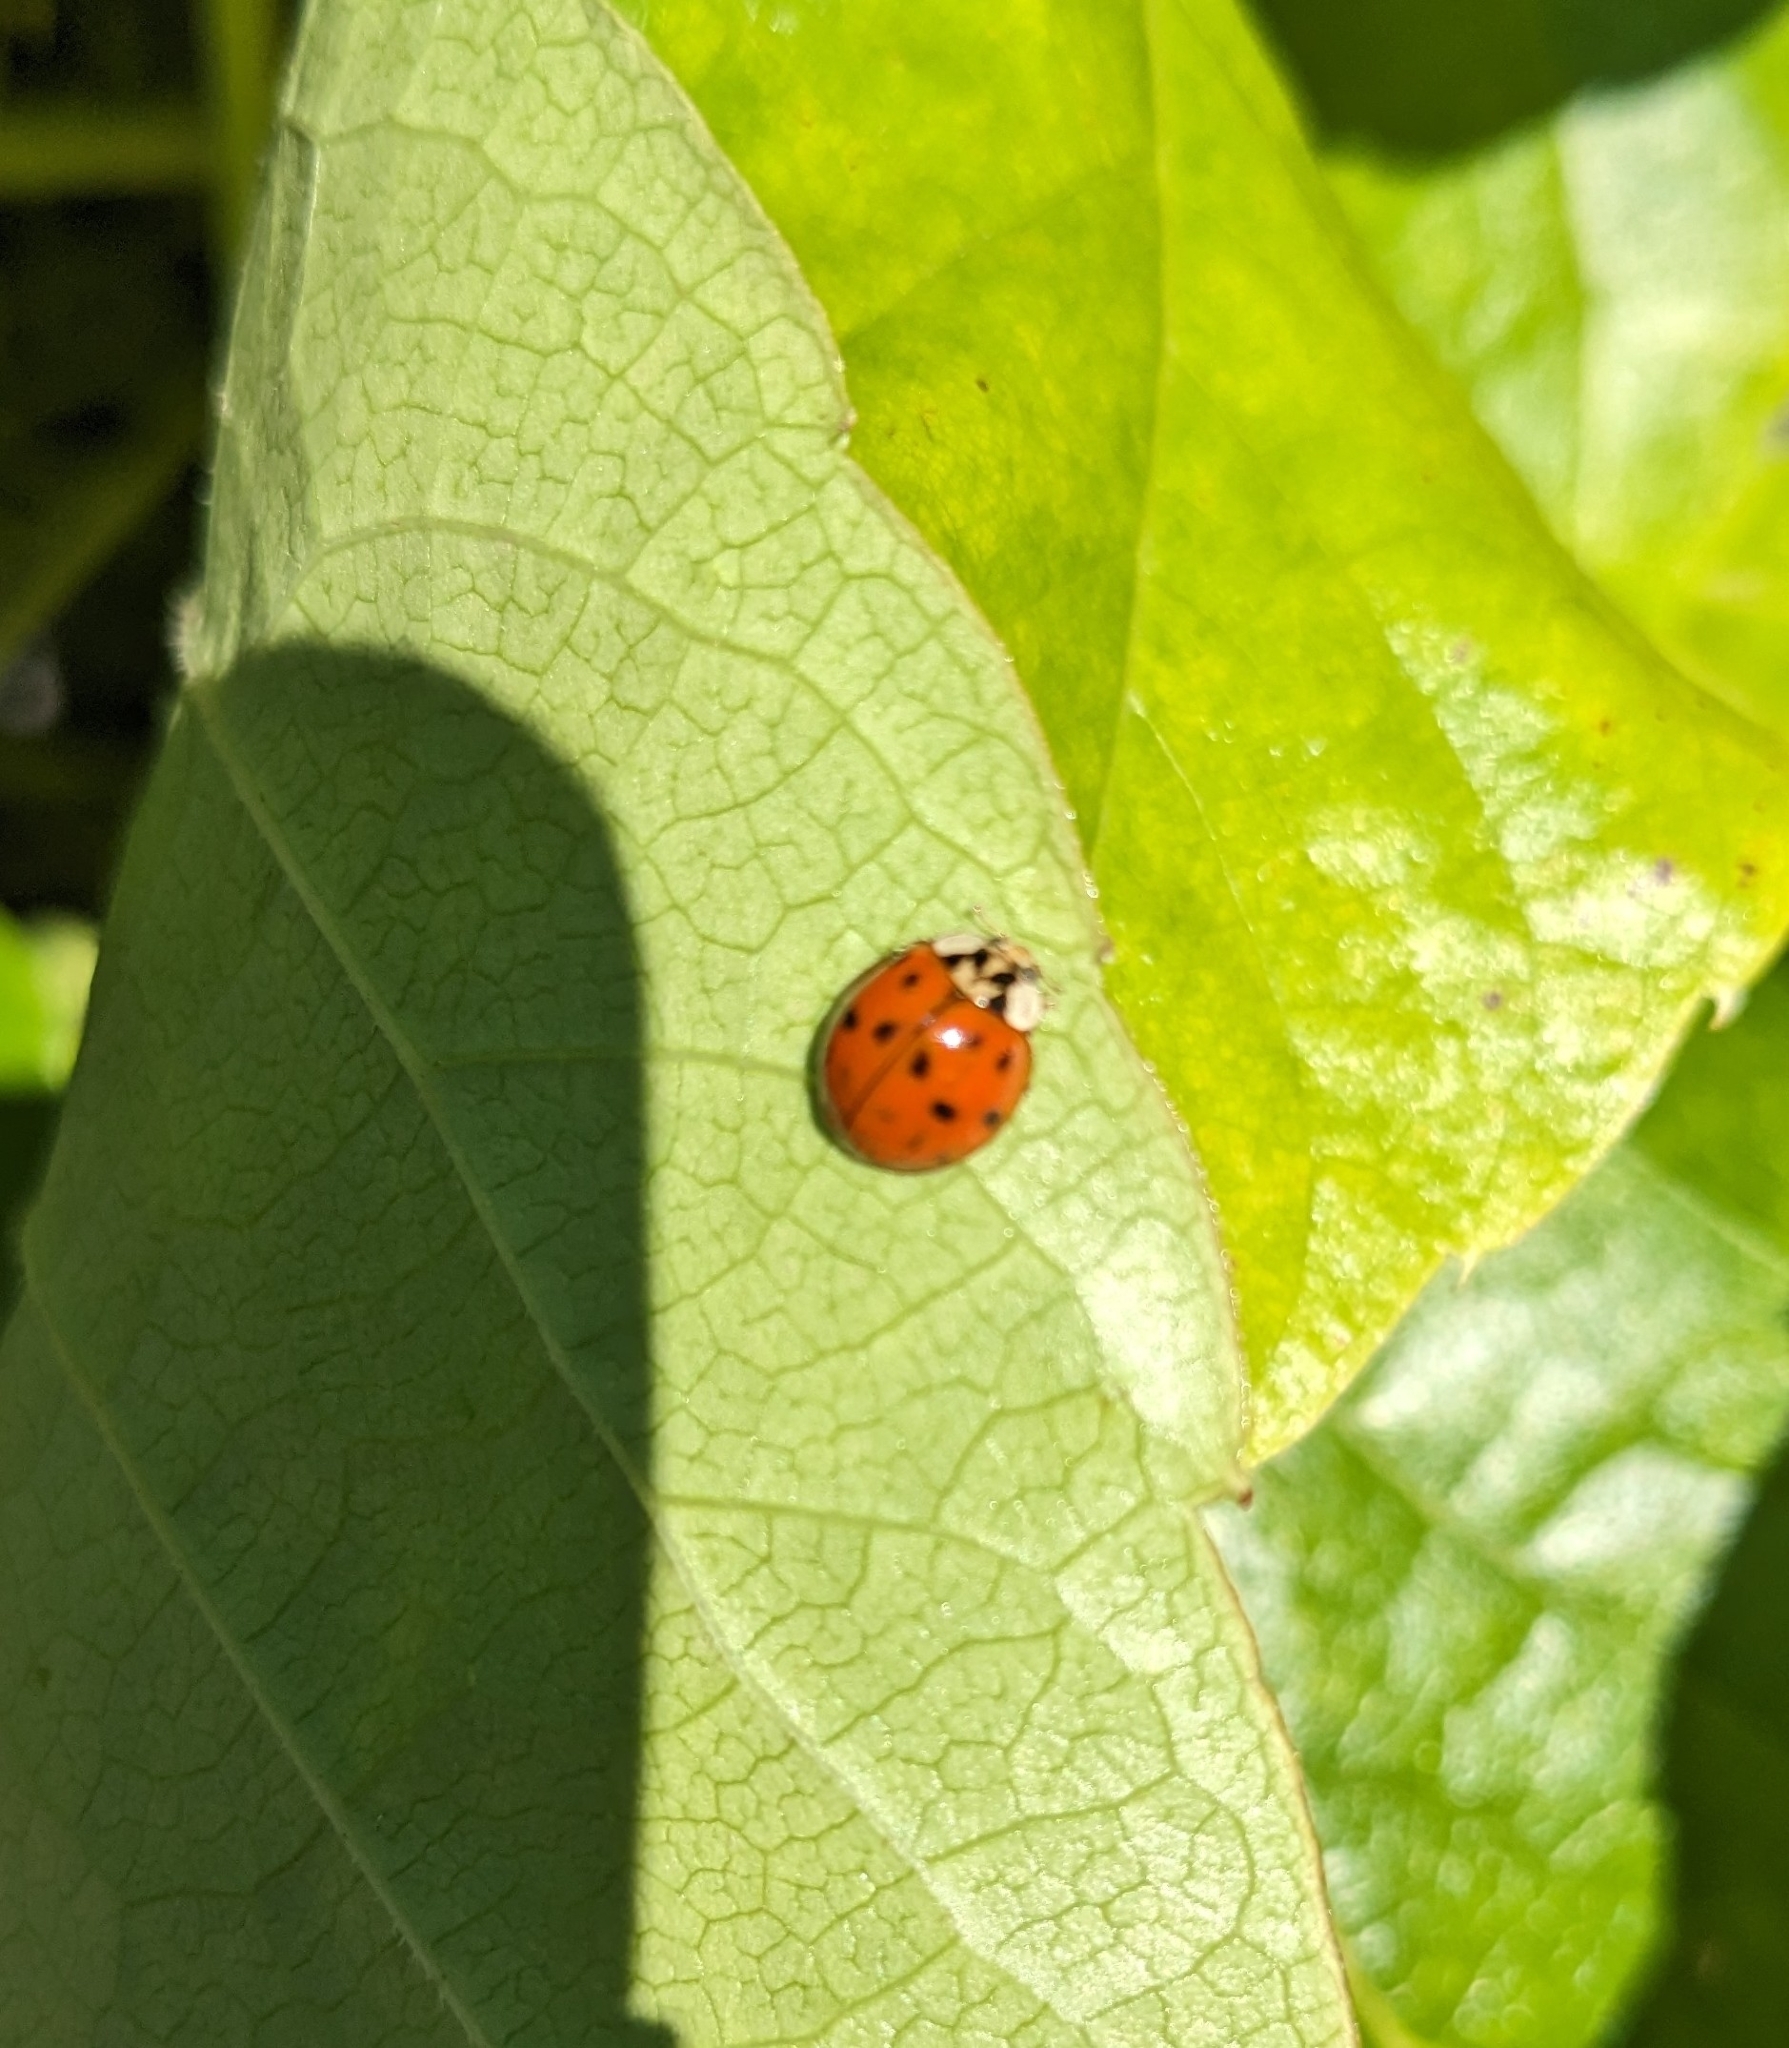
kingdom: Animalia
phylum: Arthropoda
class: Insecta
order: Coleoptera
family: Coccinellidae
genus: Harmonia
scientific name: Harmonia axyridis
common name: Harlequin ladybird
